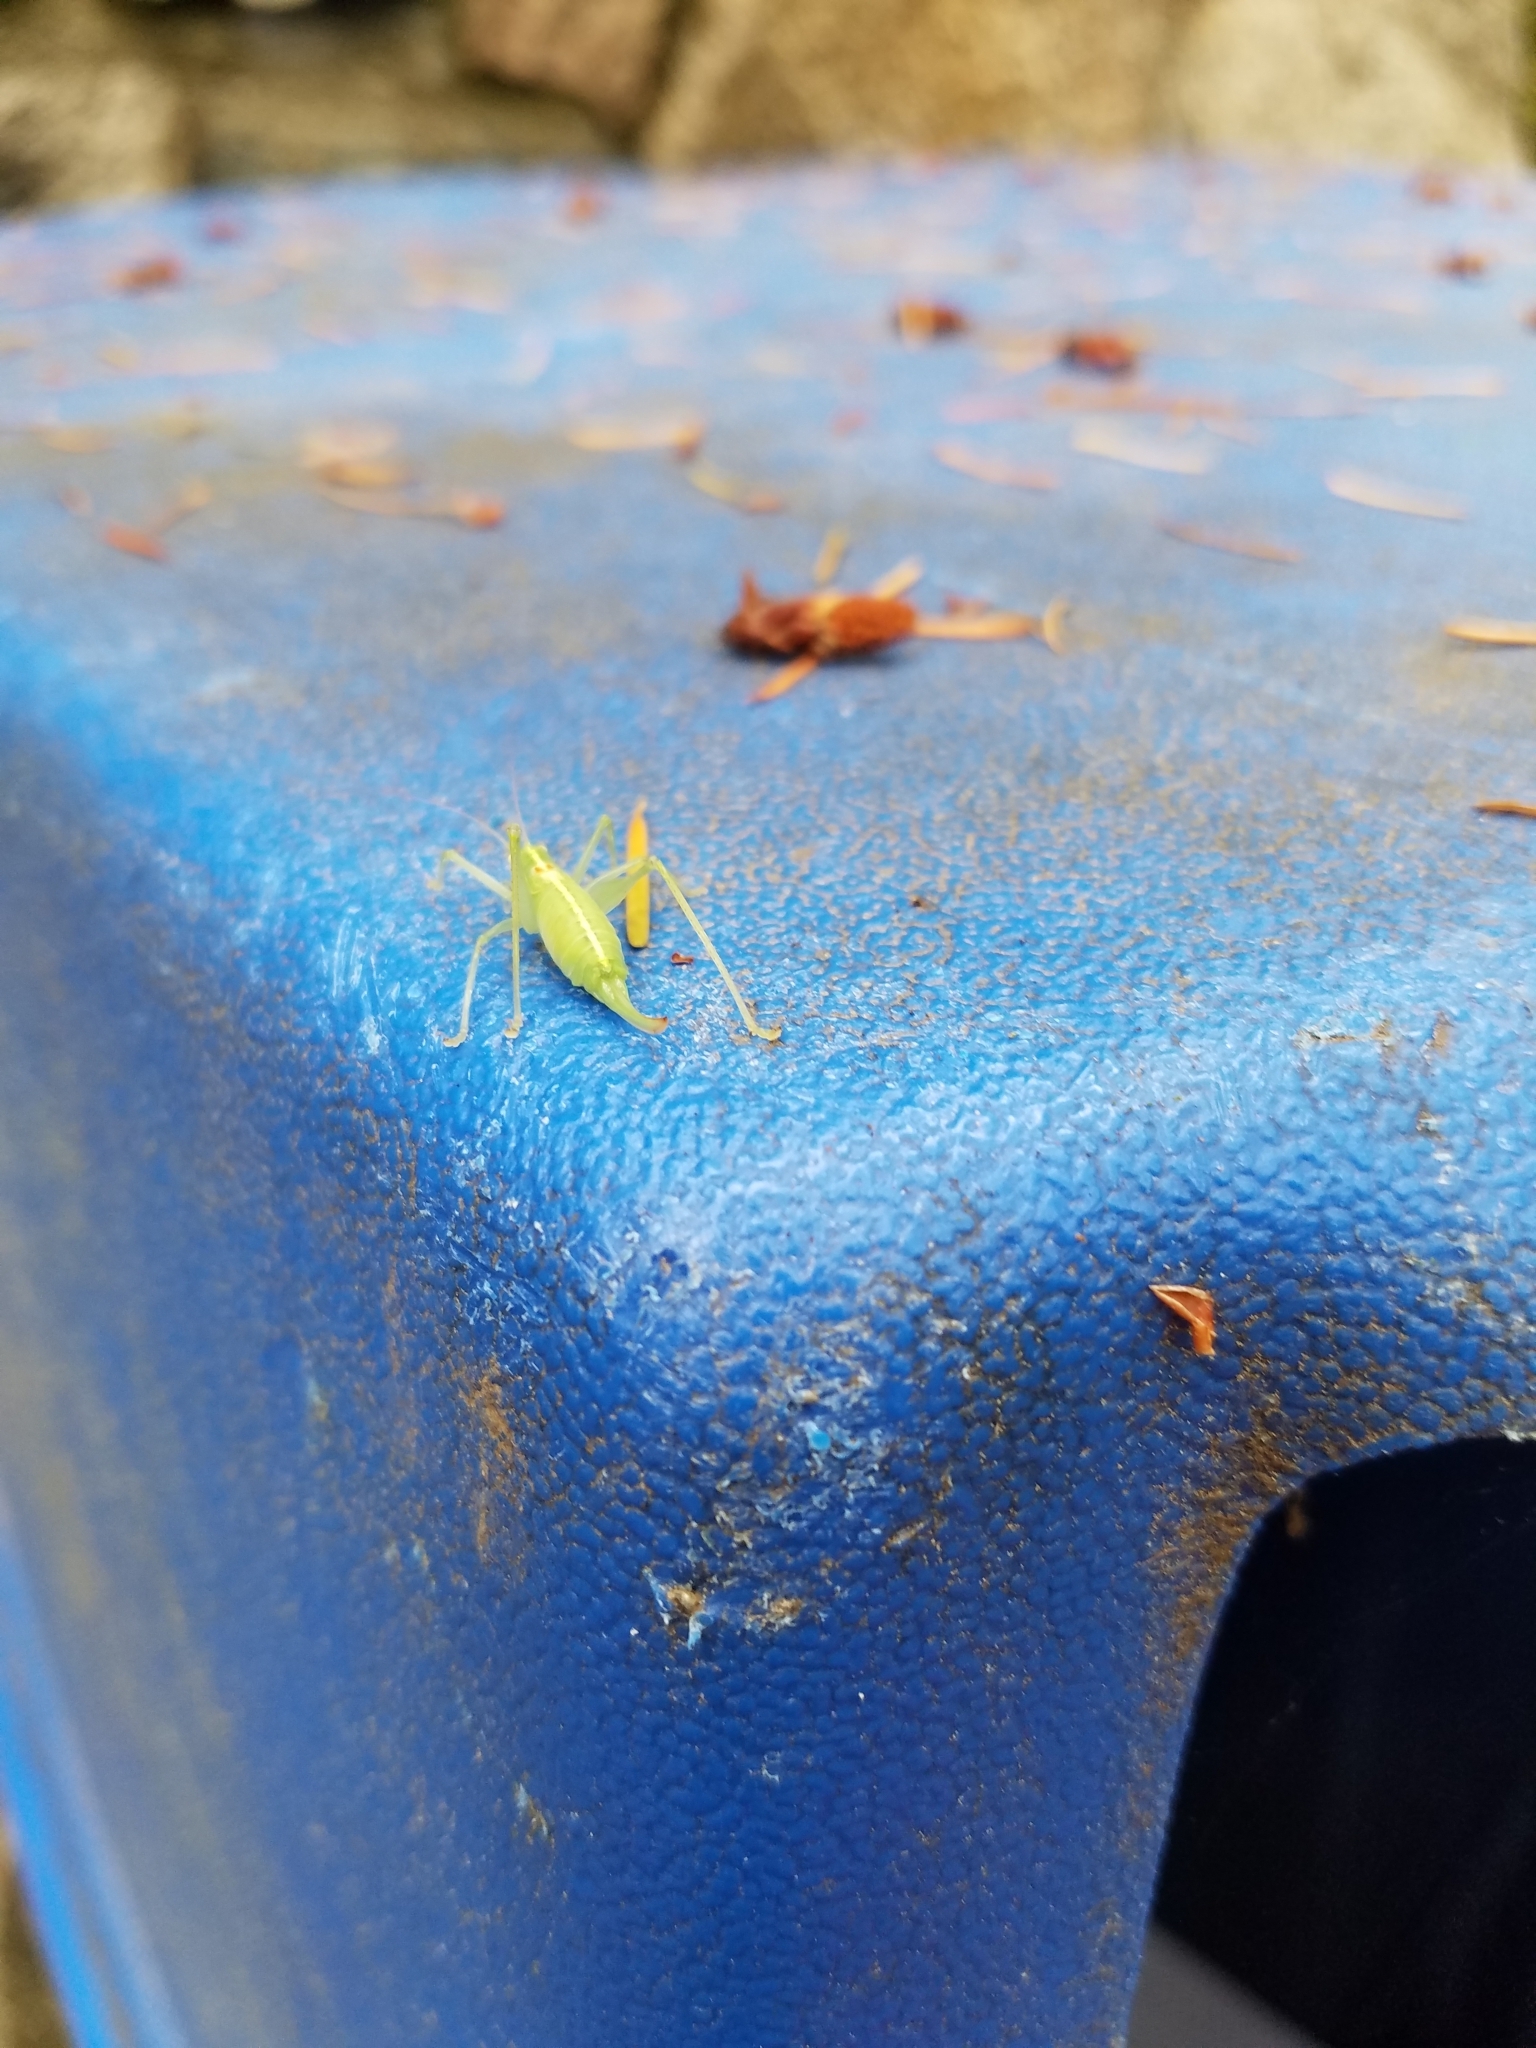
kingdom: Animalia
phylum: Arthropoda
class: Insecta
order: Orthoptera
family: Tettigoniidae
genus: Meconema
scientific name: Meconema meridionale
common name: Southern oak bush-cricket
